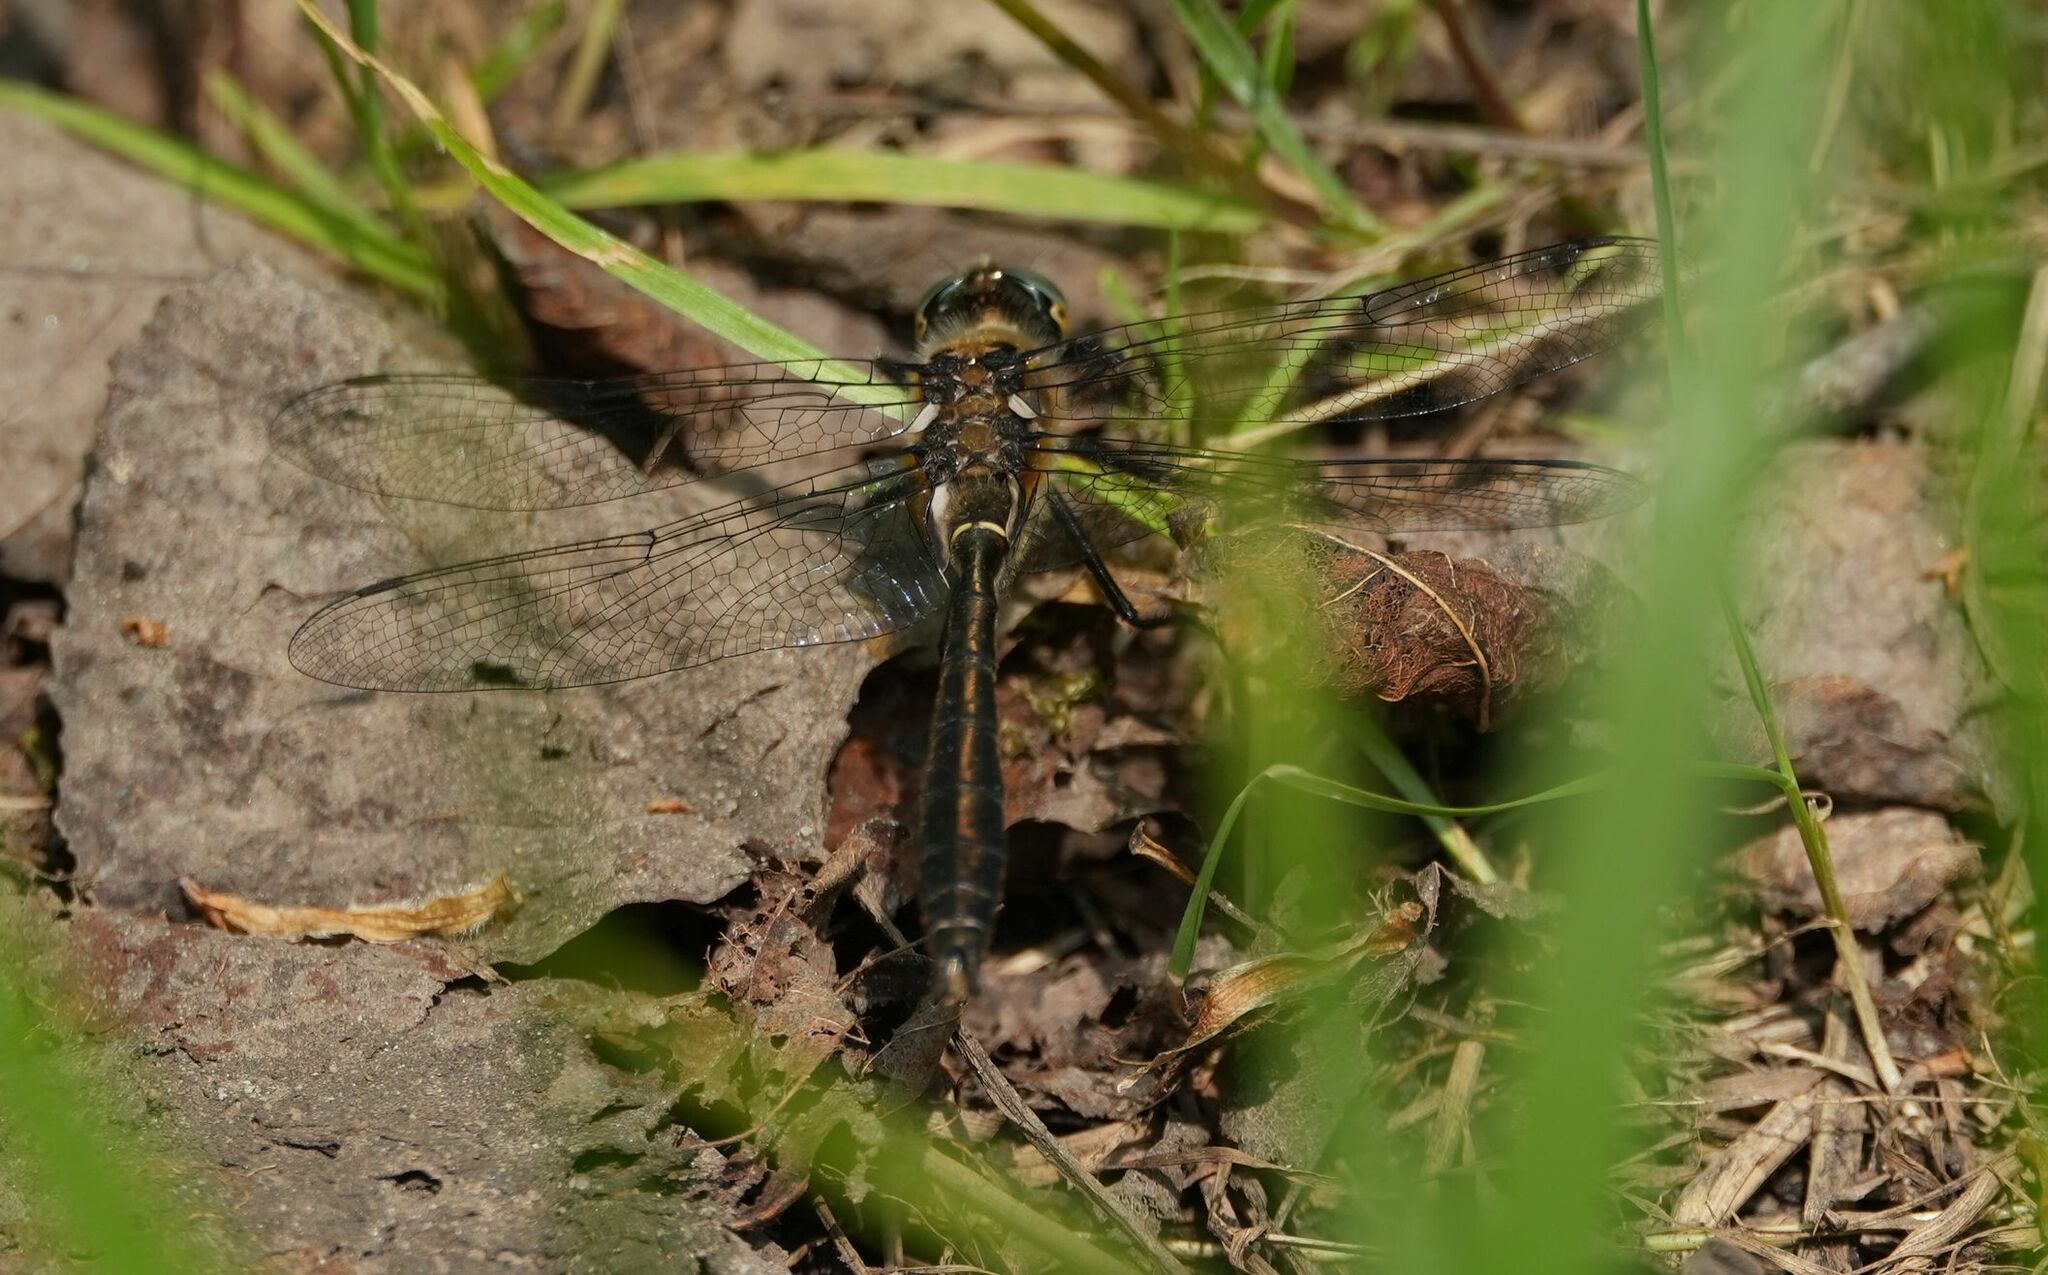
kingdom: Animalia
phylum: Arthropoda
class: Insecta
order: Odonata
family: Corduliidae
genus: Cordulia
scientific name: Cordulia shurtleffii
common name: American emerald
